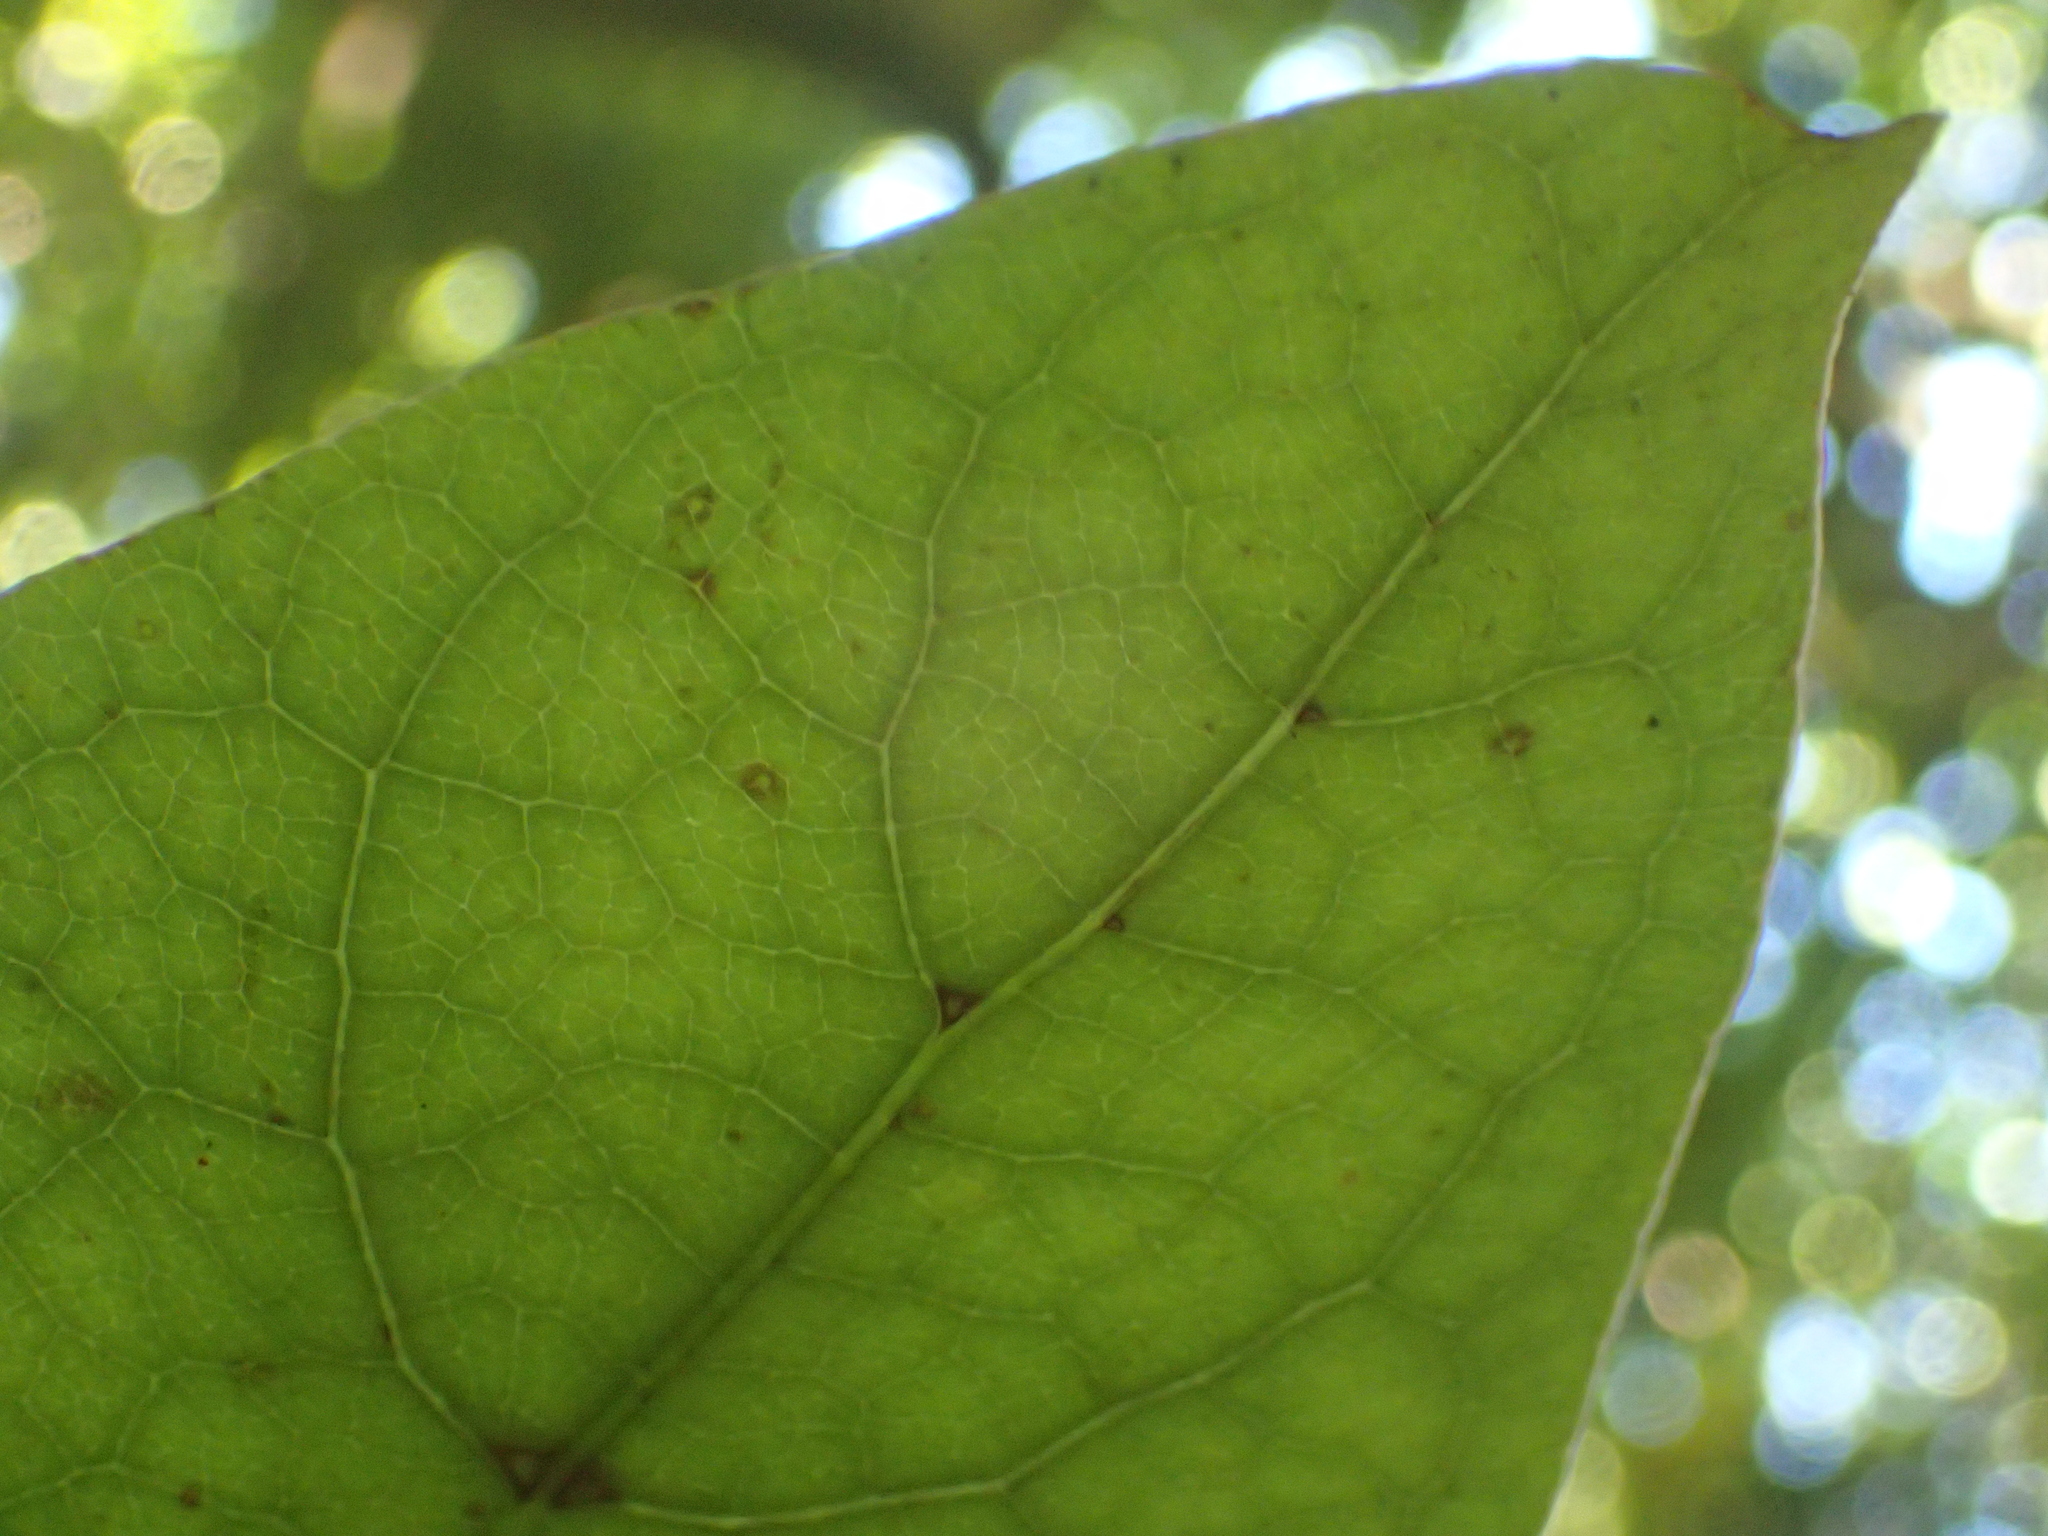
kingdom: Plantae
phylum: Tracheophyta
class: Magnoliopsida
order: Gentianales
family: Rubiaceae
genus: Coprosma
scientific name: Coprosma autumnalis
